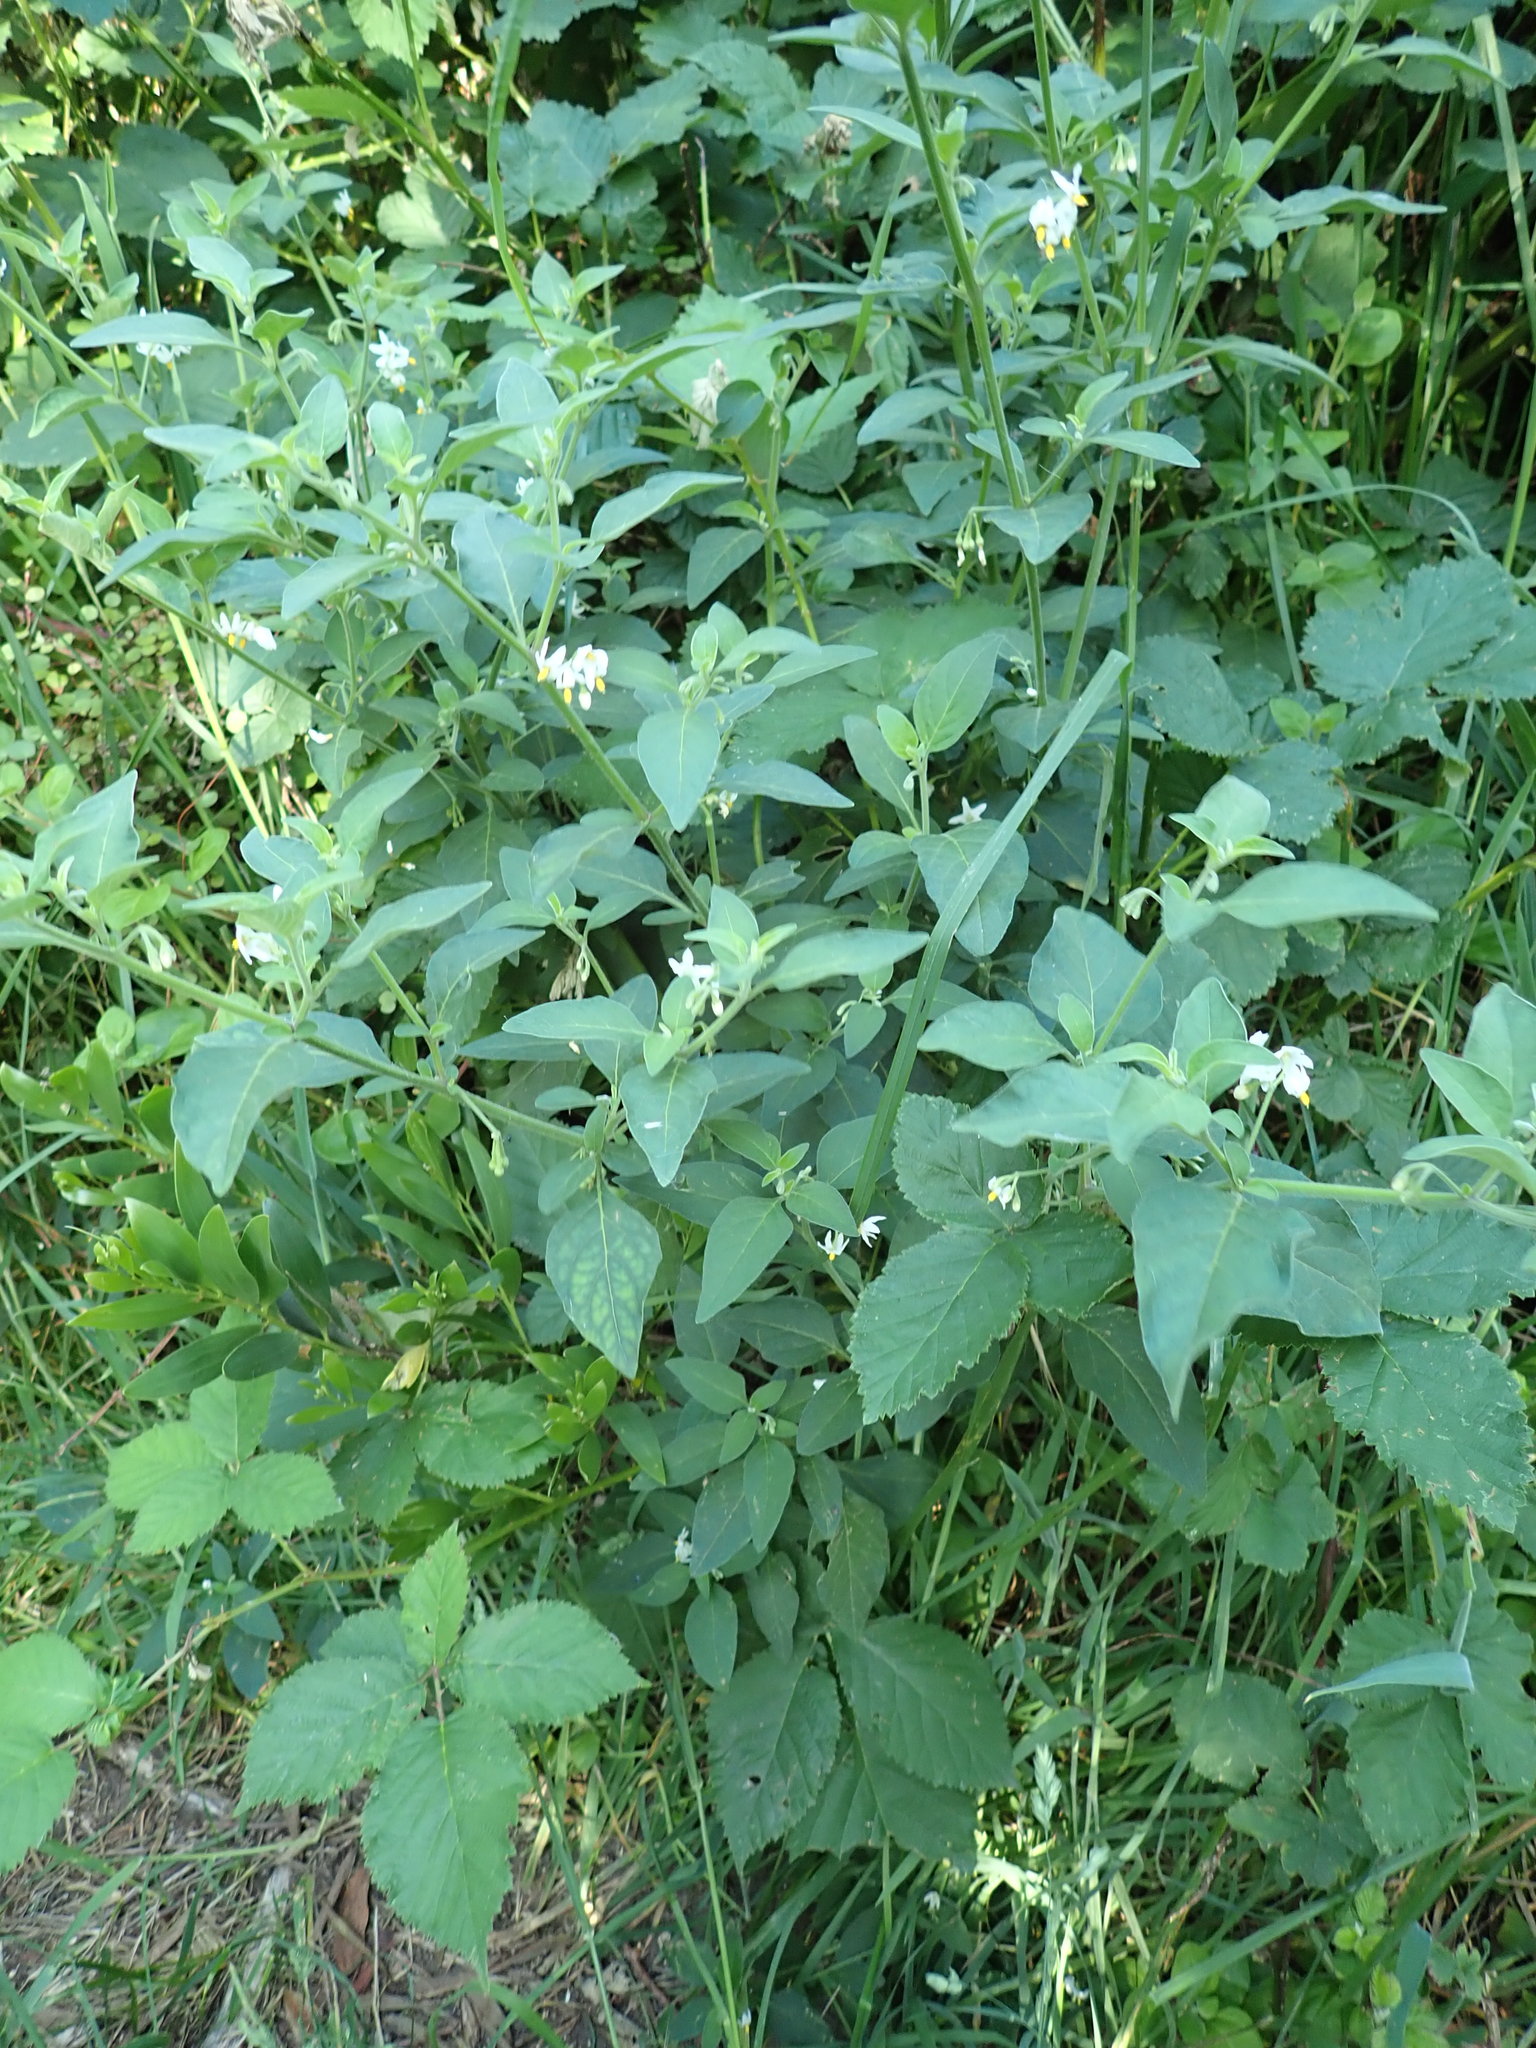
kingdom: Plantae
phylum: Tracheophyta
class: Magnoliopsida
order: Solanales
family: Solanaceae
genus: Solanum
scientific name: Solanum chenopodioides
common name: Tall nightshade
